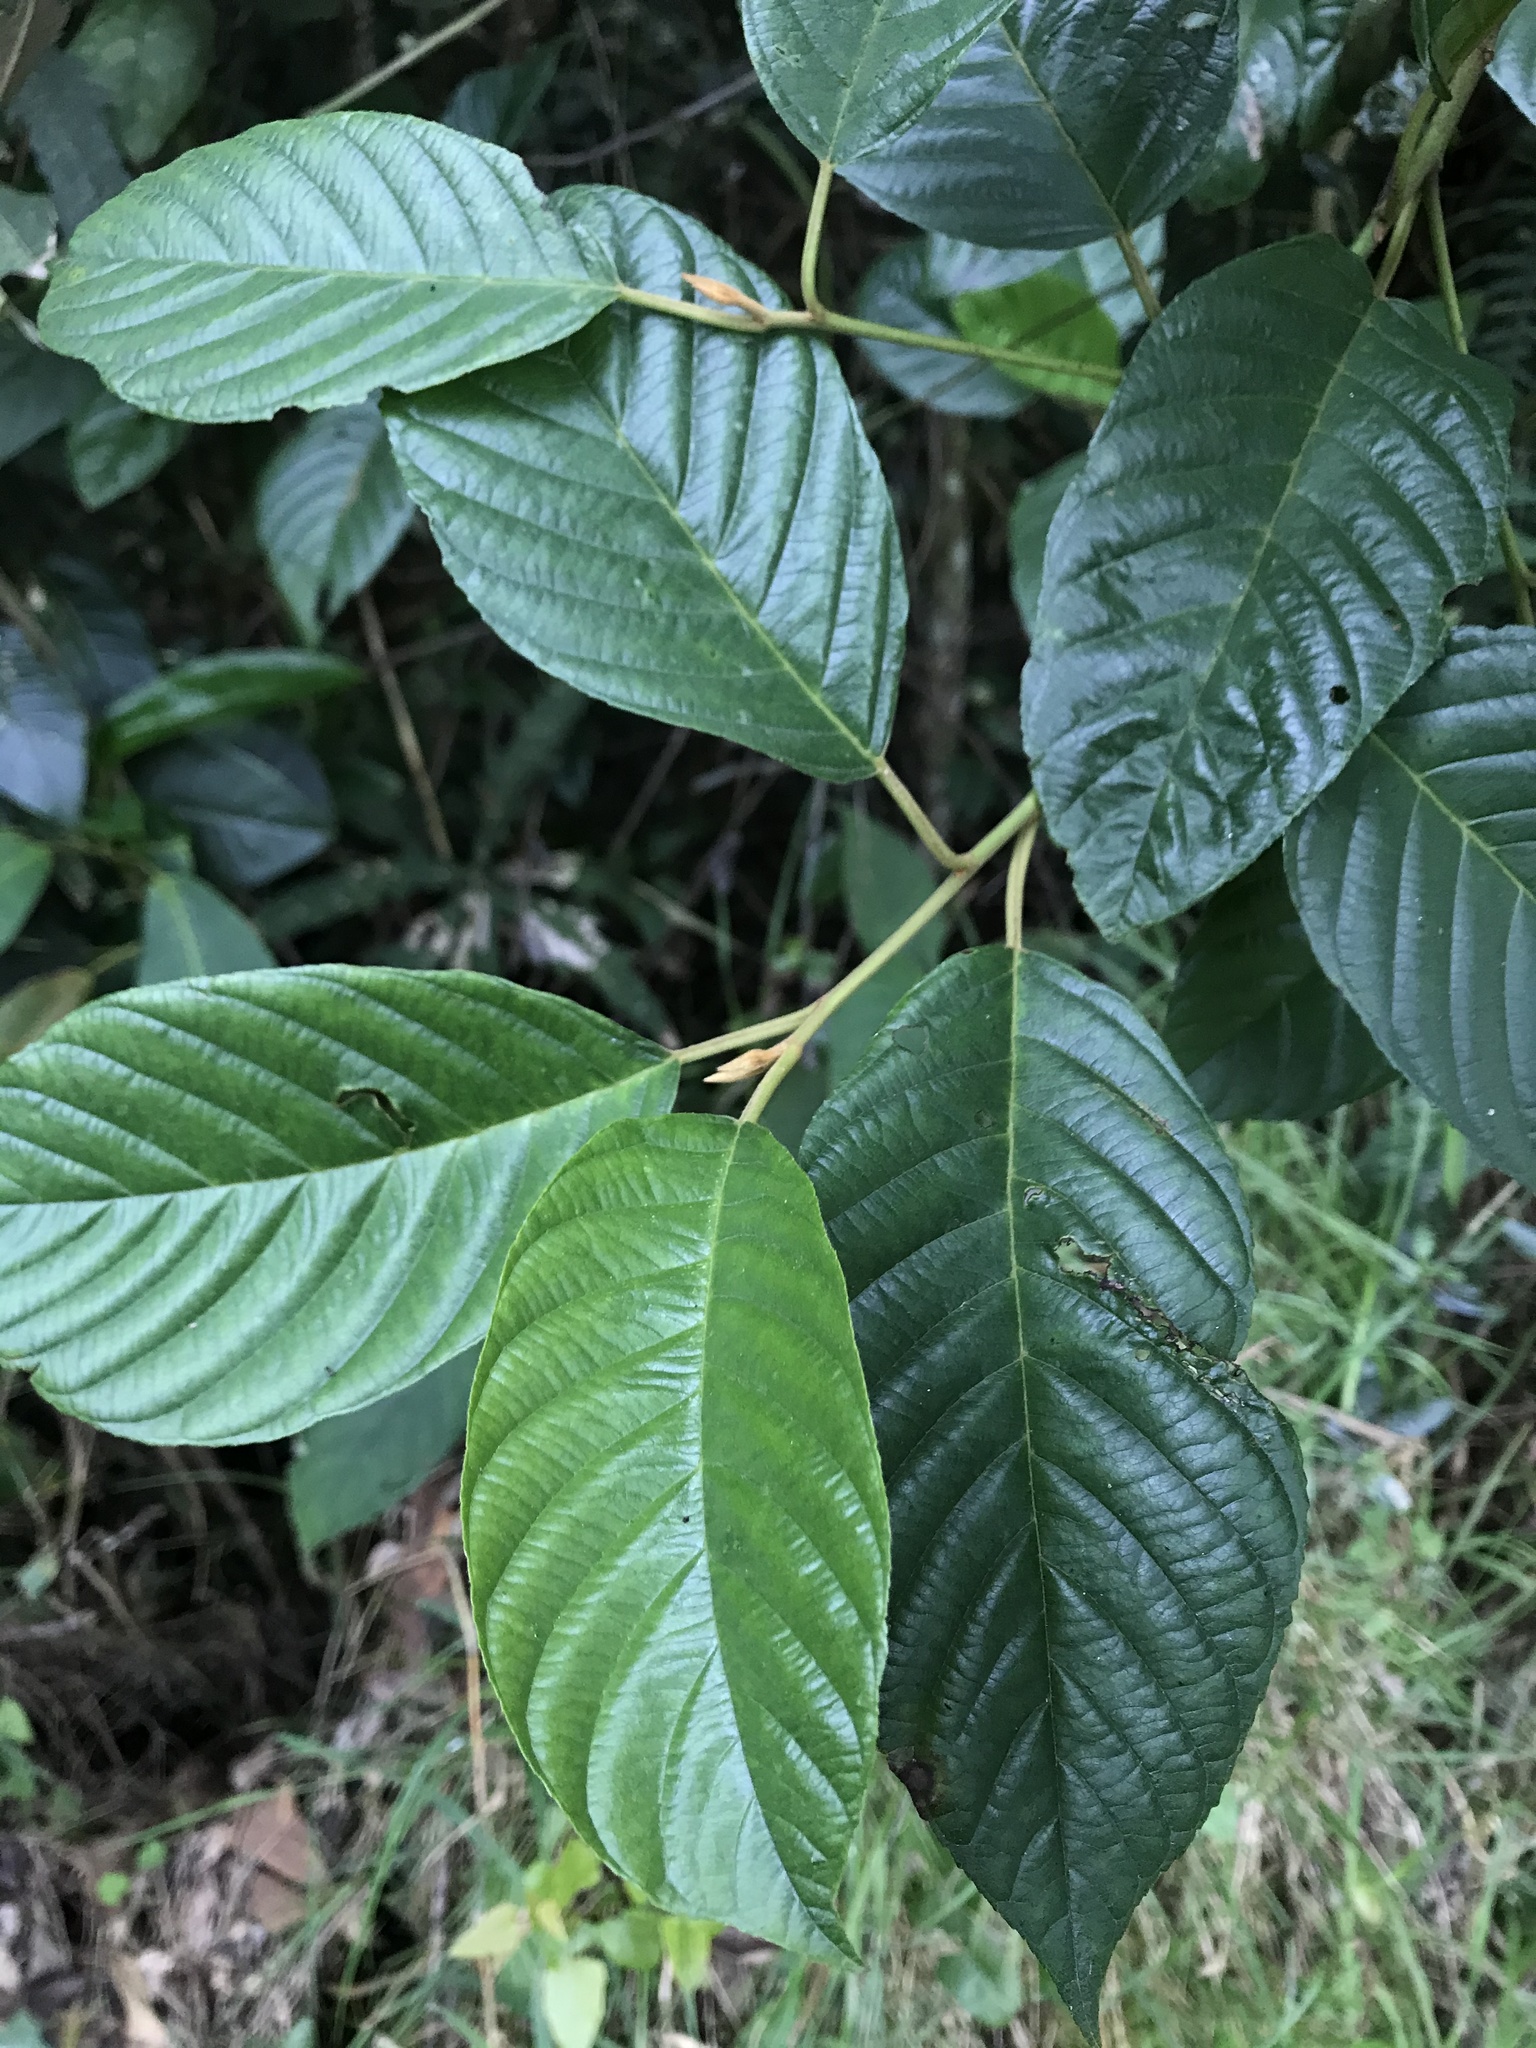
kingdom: Plantae
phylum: Tracheophyta
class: Magnoliopsida
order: Rosales
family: Rhamnaceae
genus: Frangula
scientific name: Frangula goudotiana
